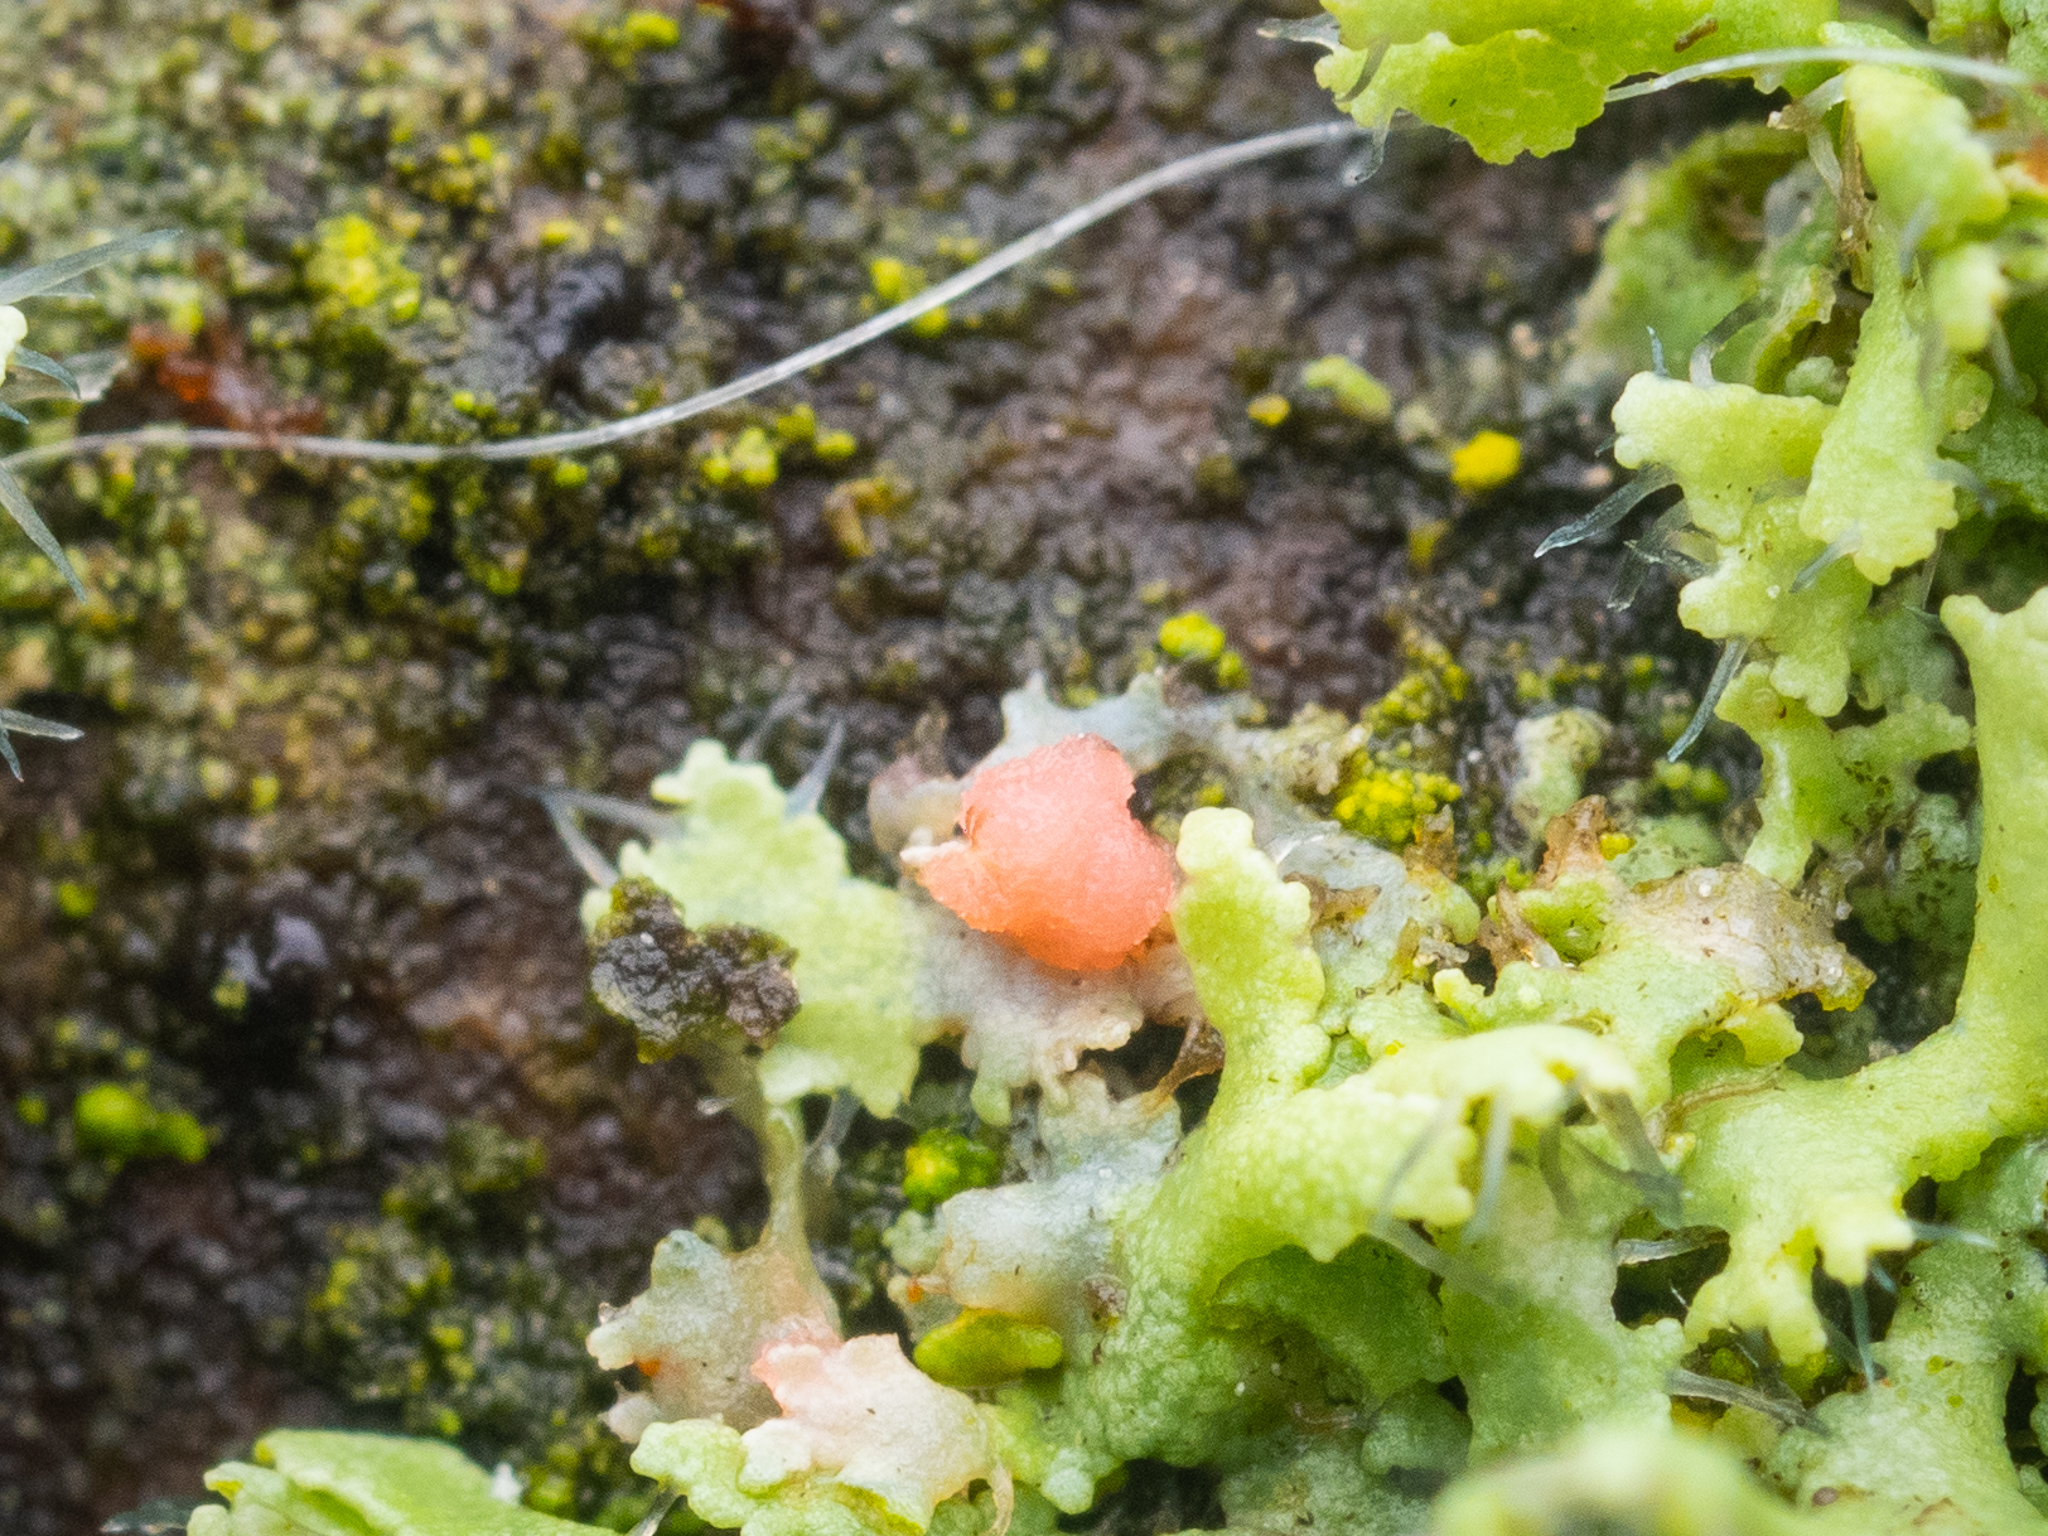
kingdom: Fungi
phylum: Ascomycota
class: Sordariomycetes
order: Hypocreales
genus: Illosporiopsis
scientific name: Illosporiopsis christiansenii
